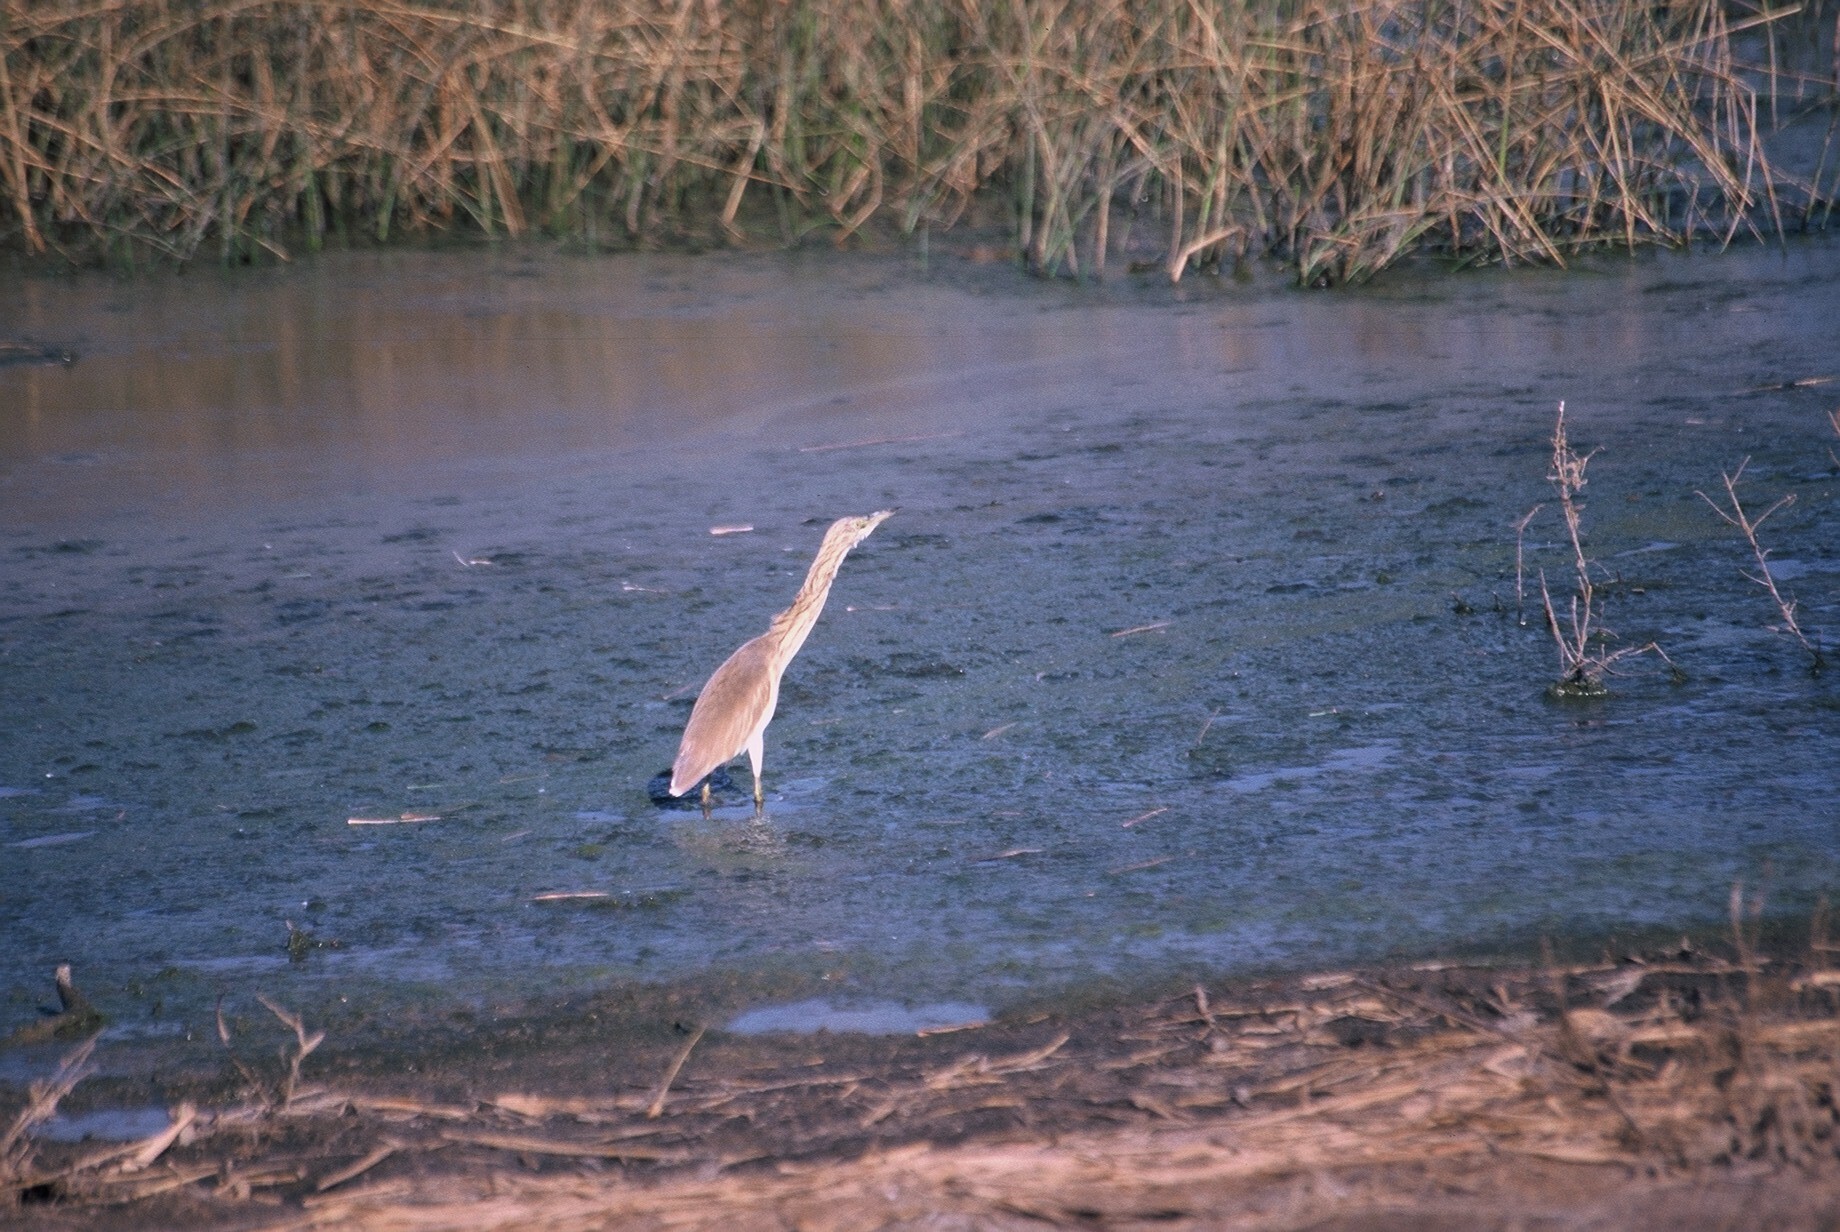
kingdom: Animalia
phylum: Chordata
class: Aves
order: Pelecaniformes
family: Ardeidae
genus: Ardeola
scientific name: Ardeola ralloides
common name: Squacco heron
